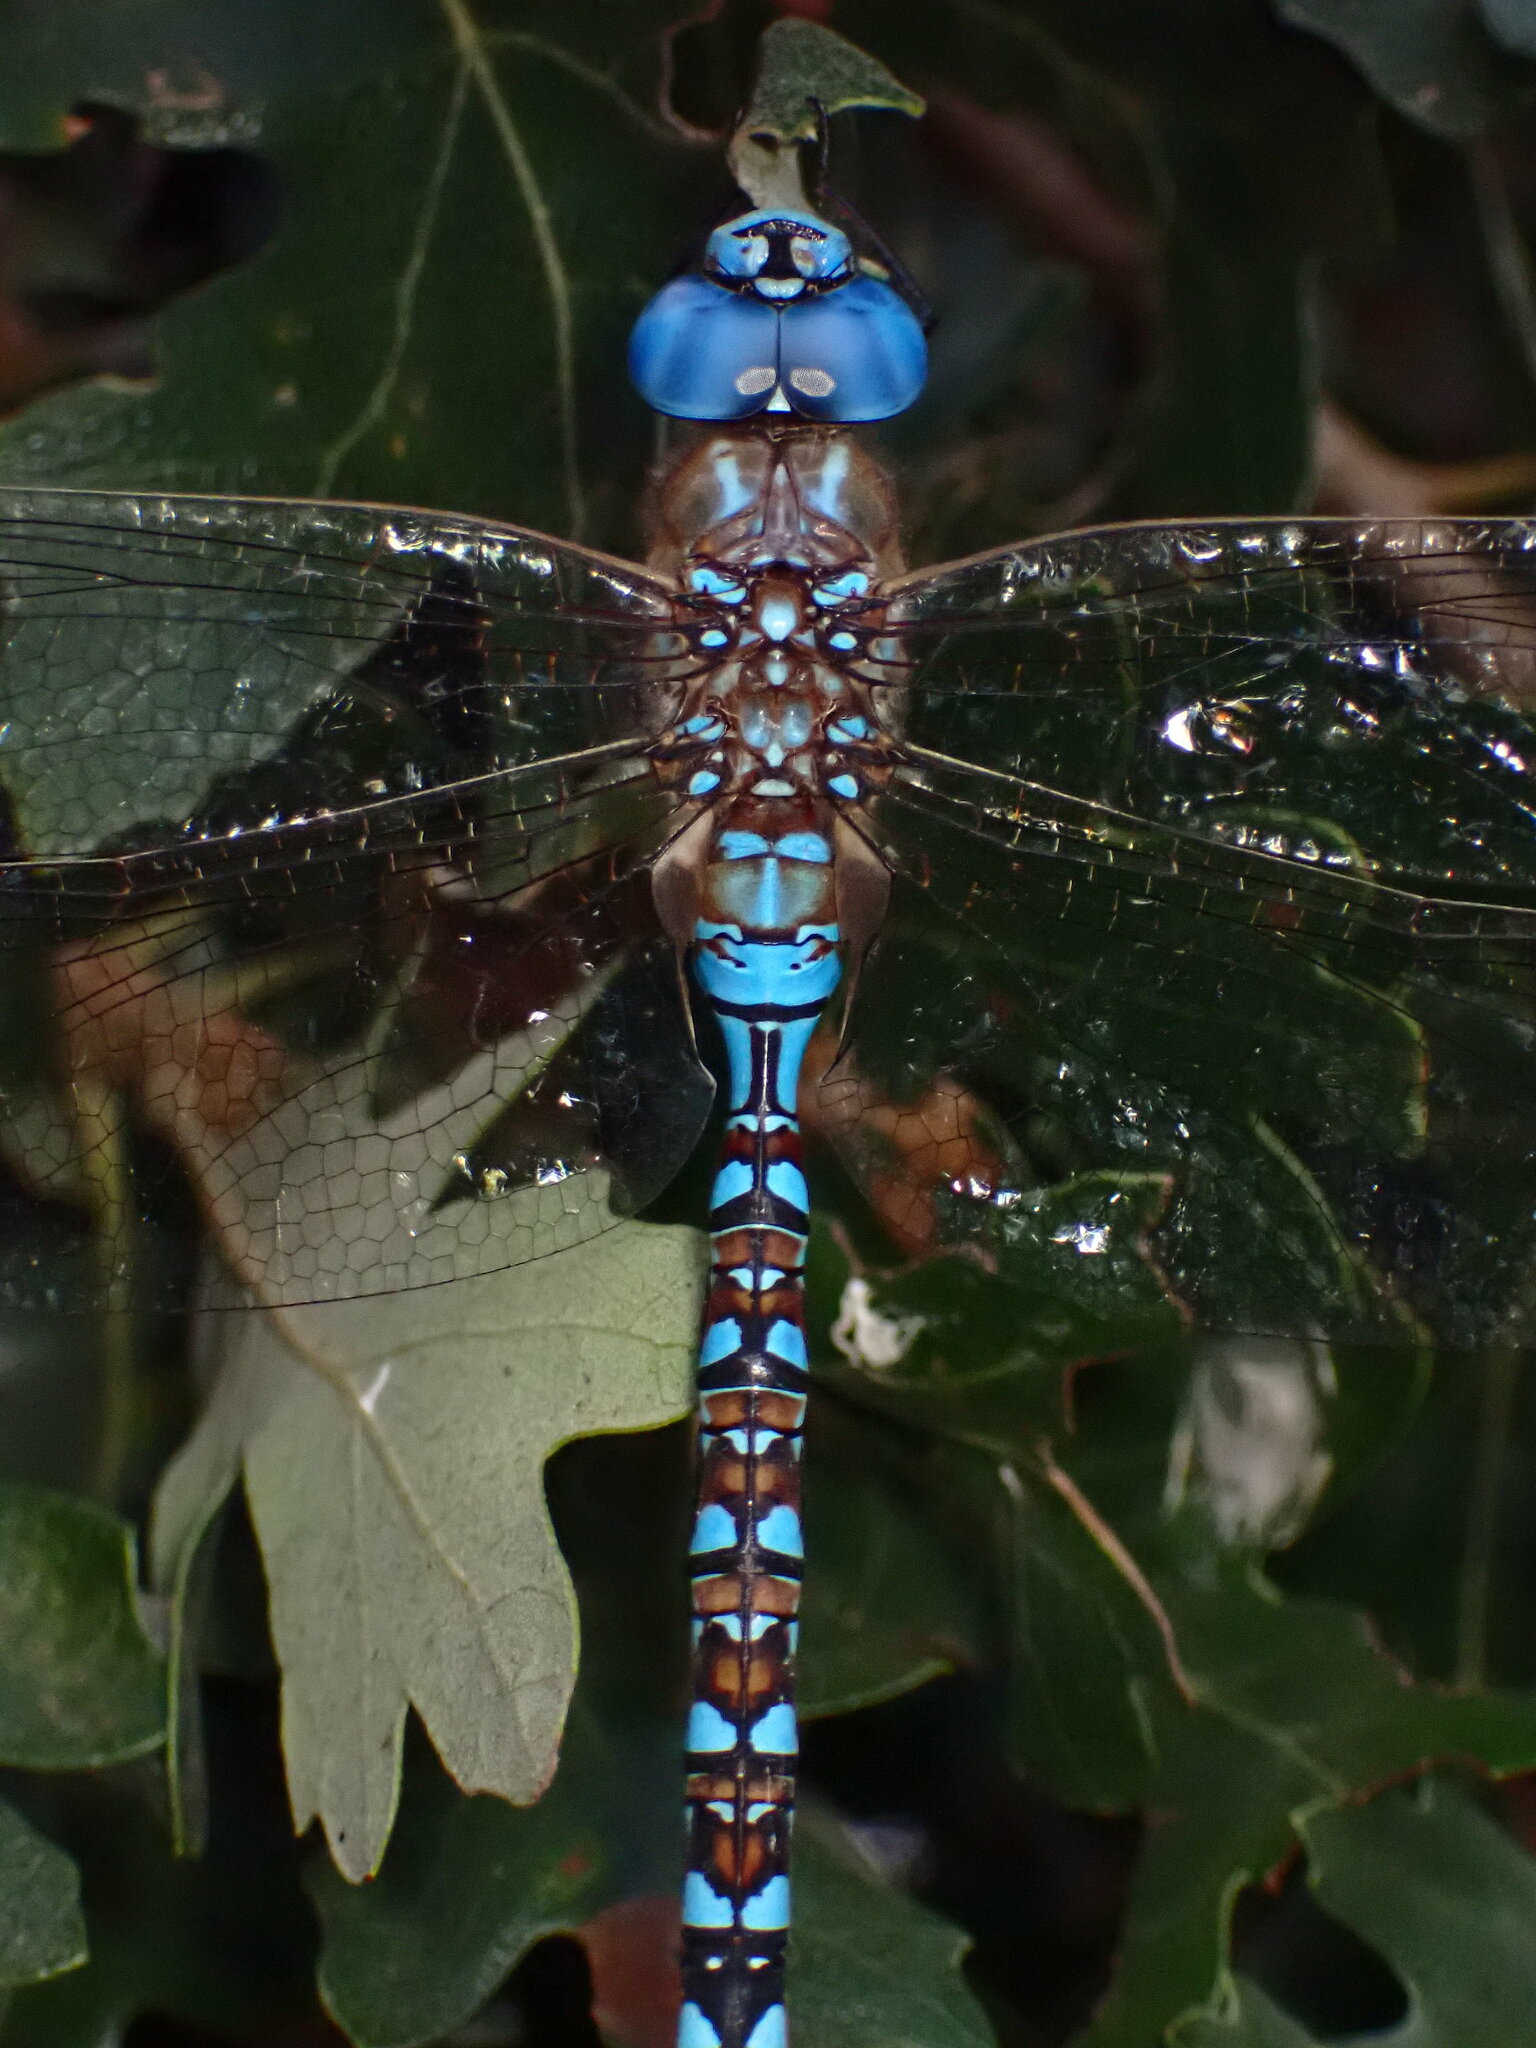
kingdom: Animalia
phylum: Arthropoda
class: Insecta
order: Odonata
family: Aeshnidae
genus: Rhionaeschna
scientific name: Rhionaeschna multicolor
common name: Blue-eyed darner
